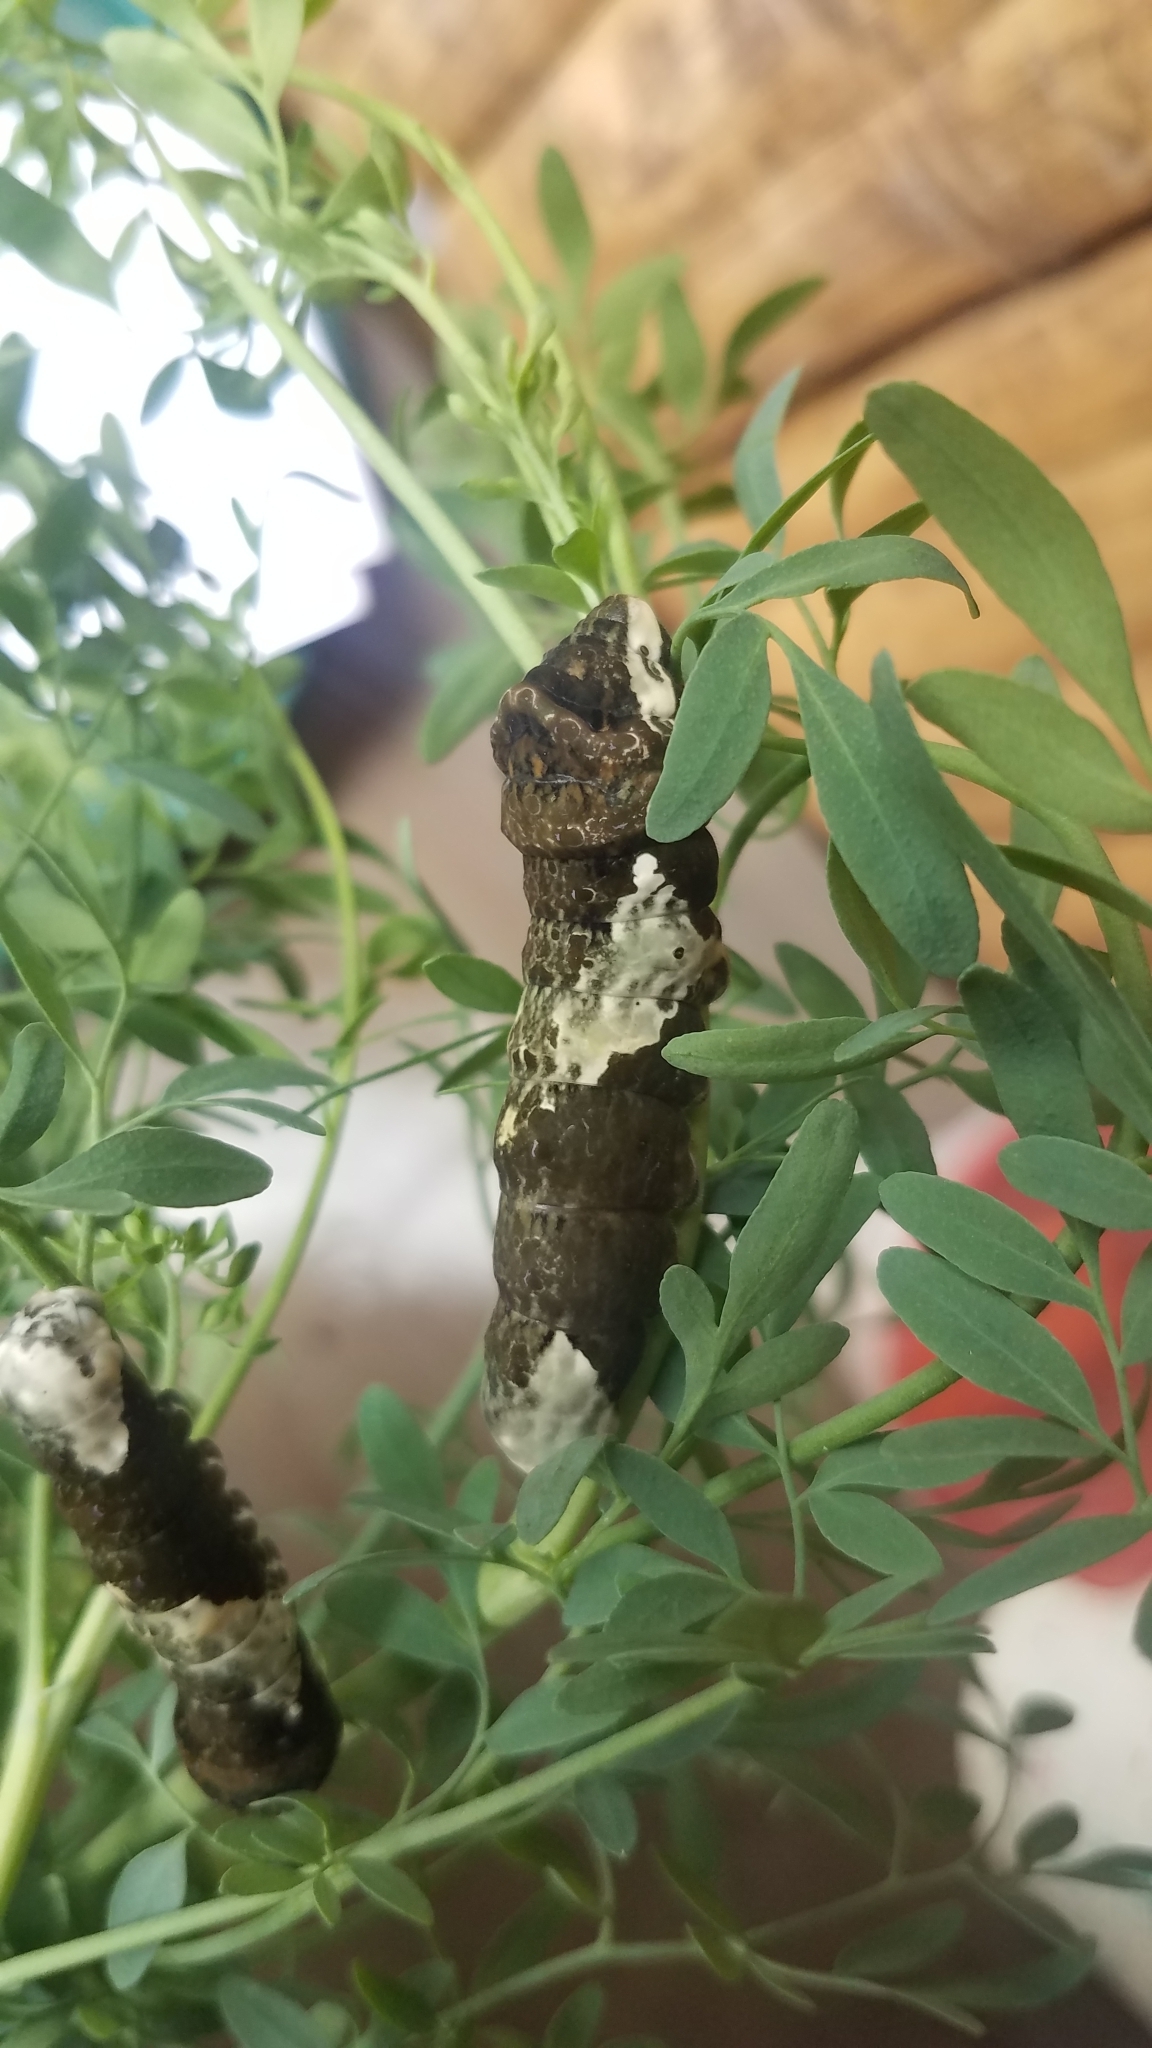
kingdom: Animalia
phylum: Arthropoda
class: Insecta
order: Lepidoptera
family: Papilionidae
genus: Papilio
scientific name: Papilio rumiko
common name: Western giant swallowtail
